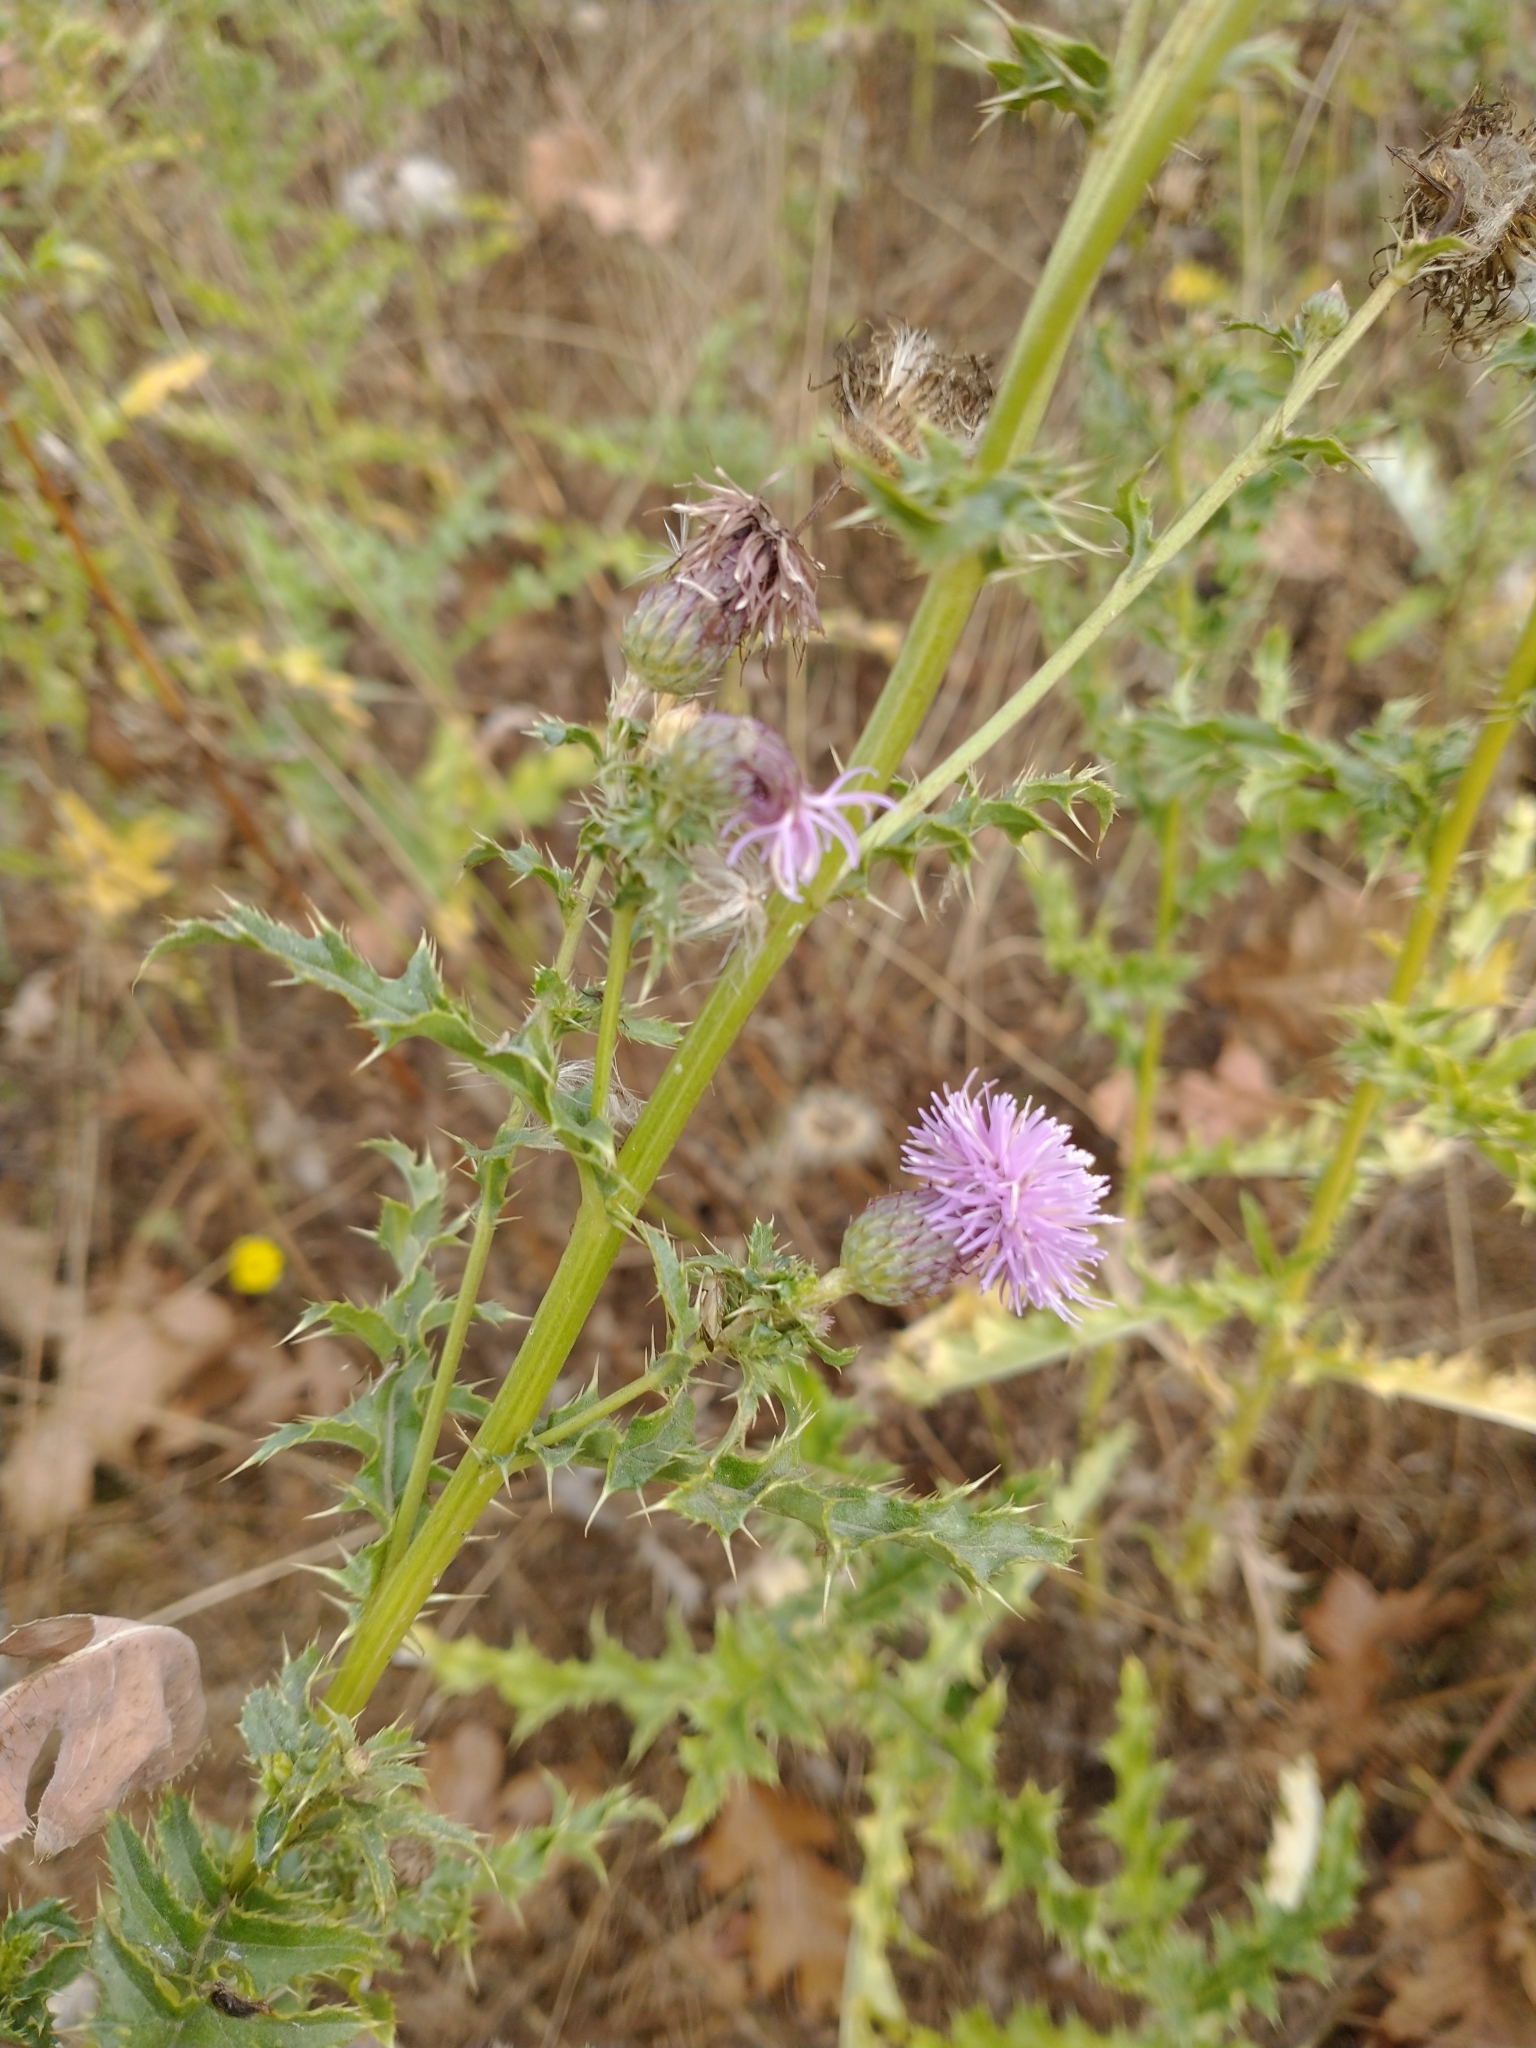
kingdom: Plantae
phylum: Tracheophyta
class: Magnoliopsida
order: Asterales
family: Asteraceae
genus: Cirsium
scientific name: Cirsium arvense
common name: Creeping thistle
